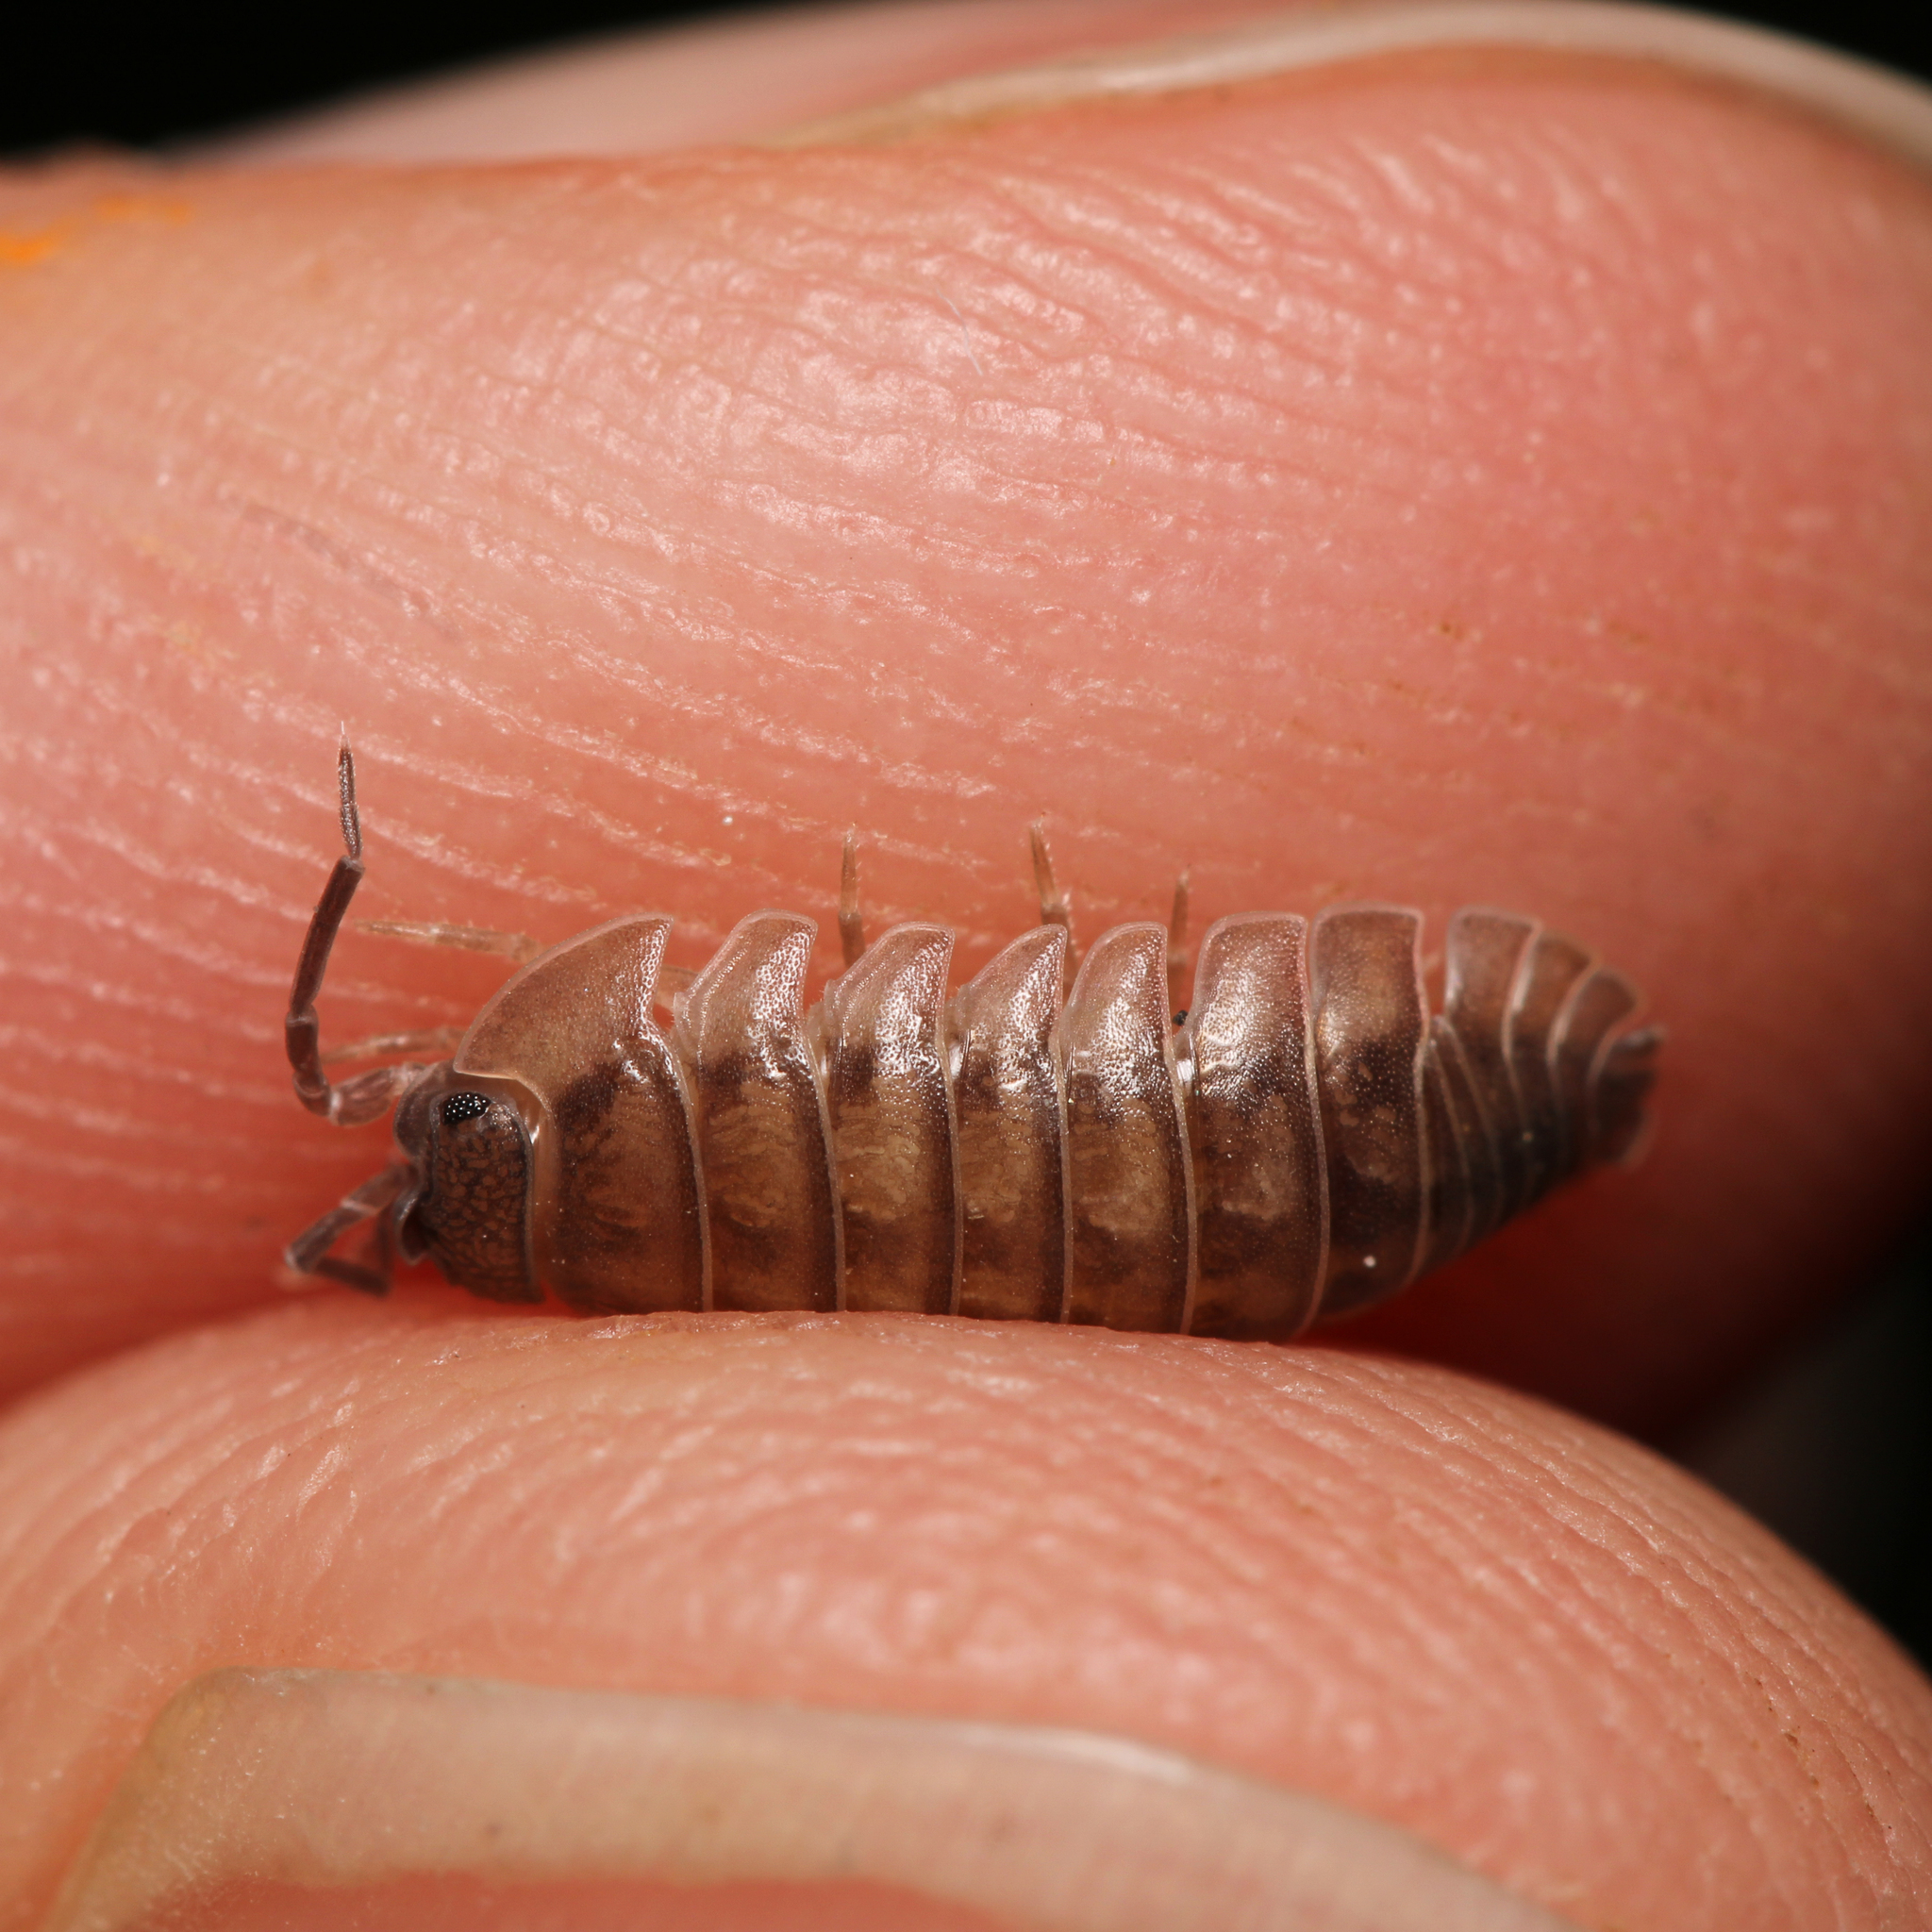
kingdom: Animalia
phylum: Arthropoda
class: Malacostraca
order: Isopoda
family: Armadillidiidae
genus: Armadillidium
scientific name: Armadillidium nasatum
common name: Isopod
